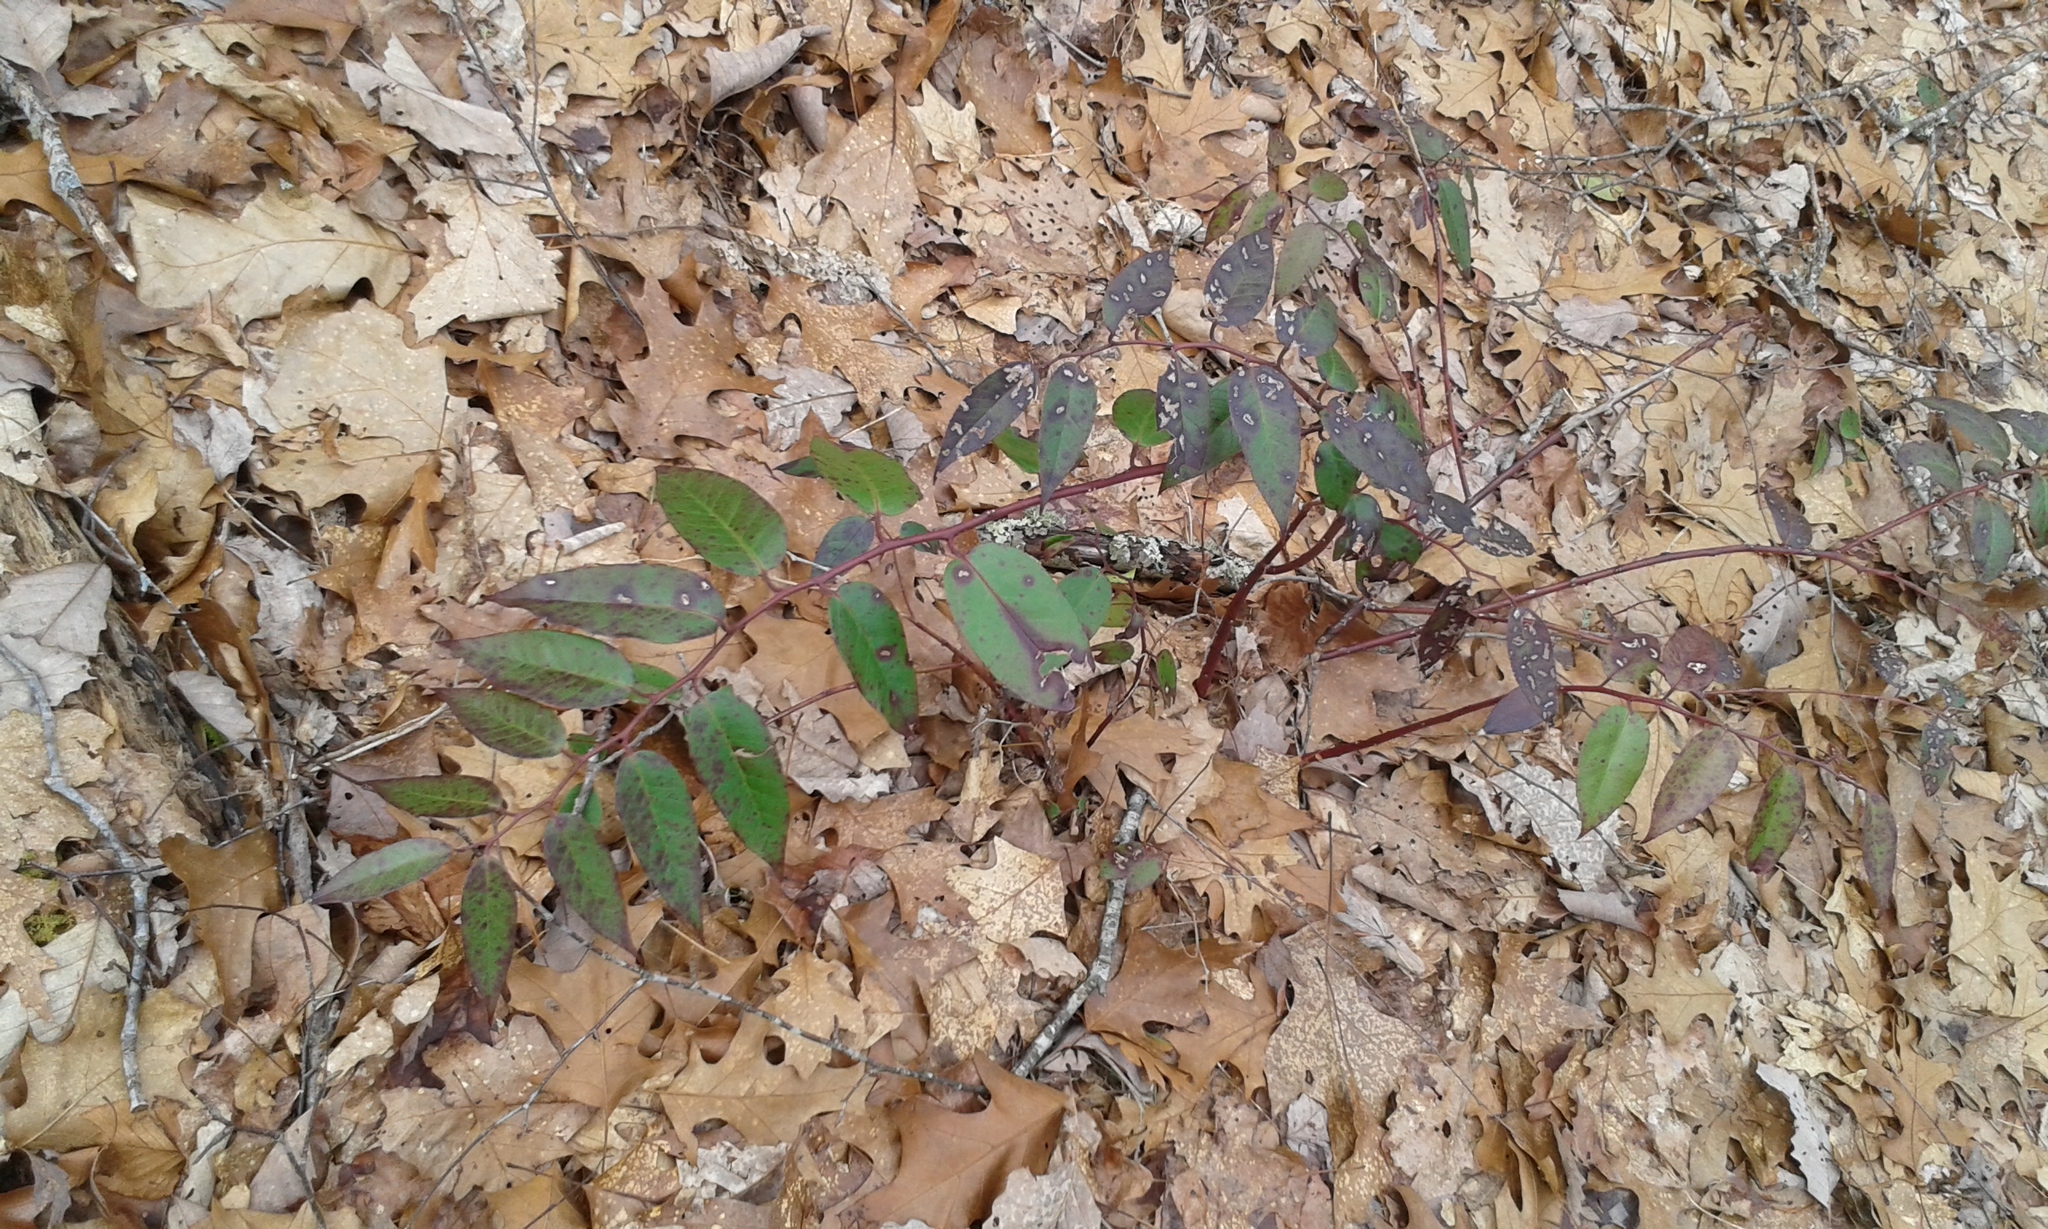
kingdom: Plantae
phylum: Tracheophyta
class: Magnoliopsida
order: Ericales
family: Ericaceae
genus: Leucothoe
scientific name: Leucothoe fontanesiana
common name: Fetterbush
